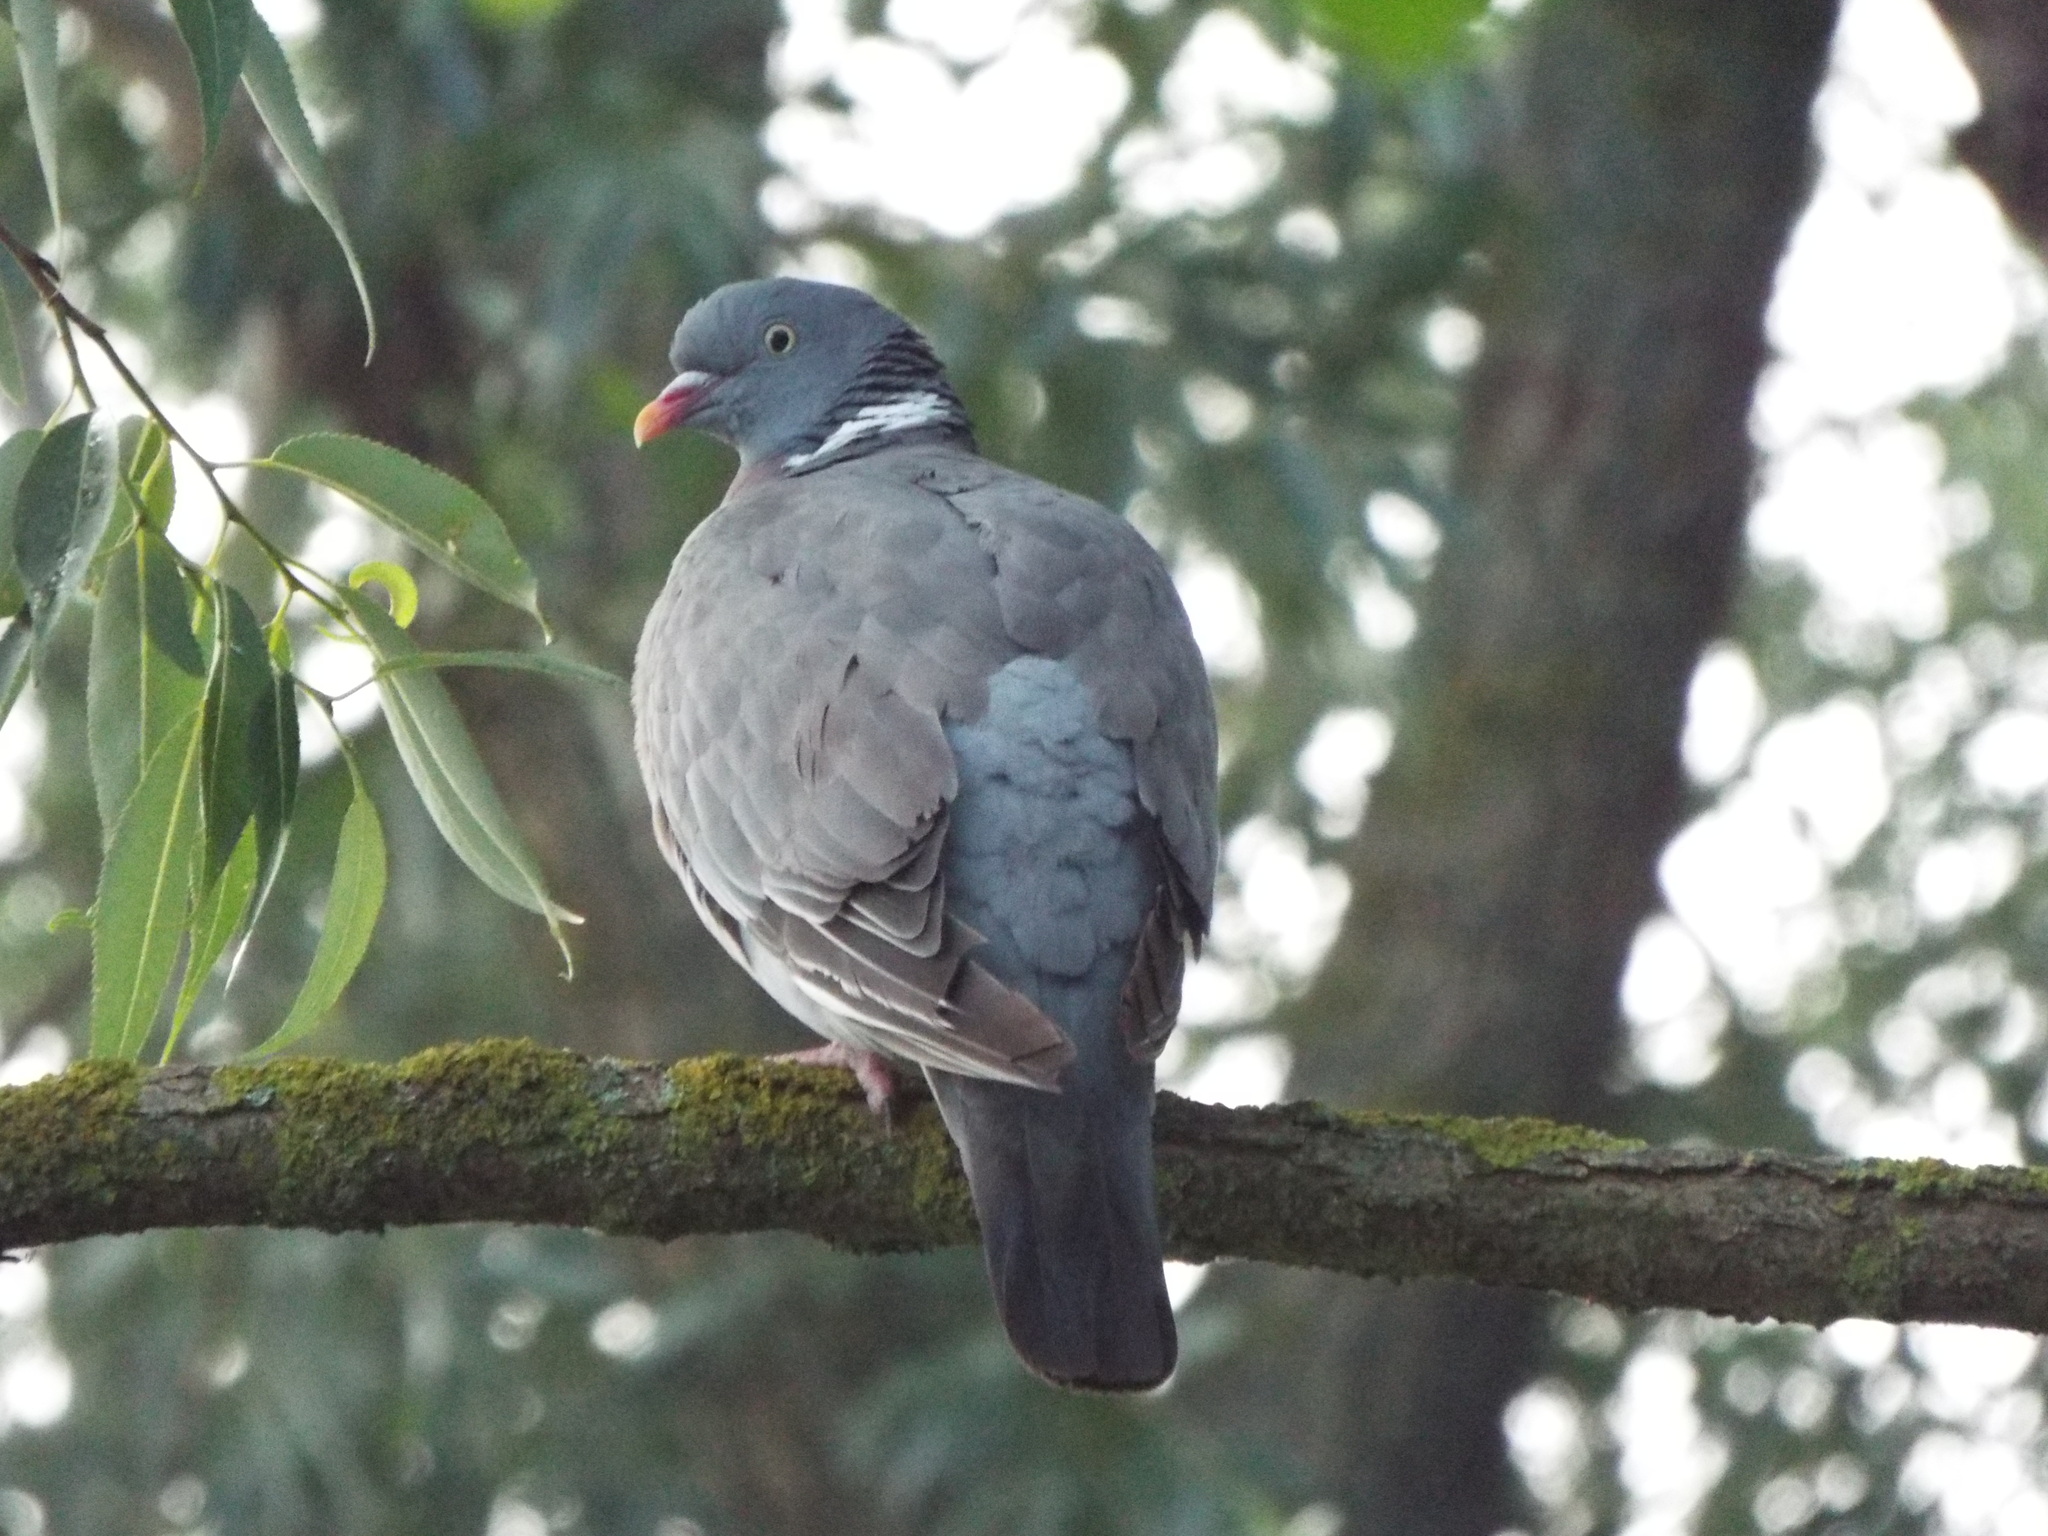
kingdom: Animalia
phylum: Chordata
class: Aves
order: Columbiformes
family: Columbidae
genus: Columba
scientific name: Columba palumbus
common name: Common wood pigeon
